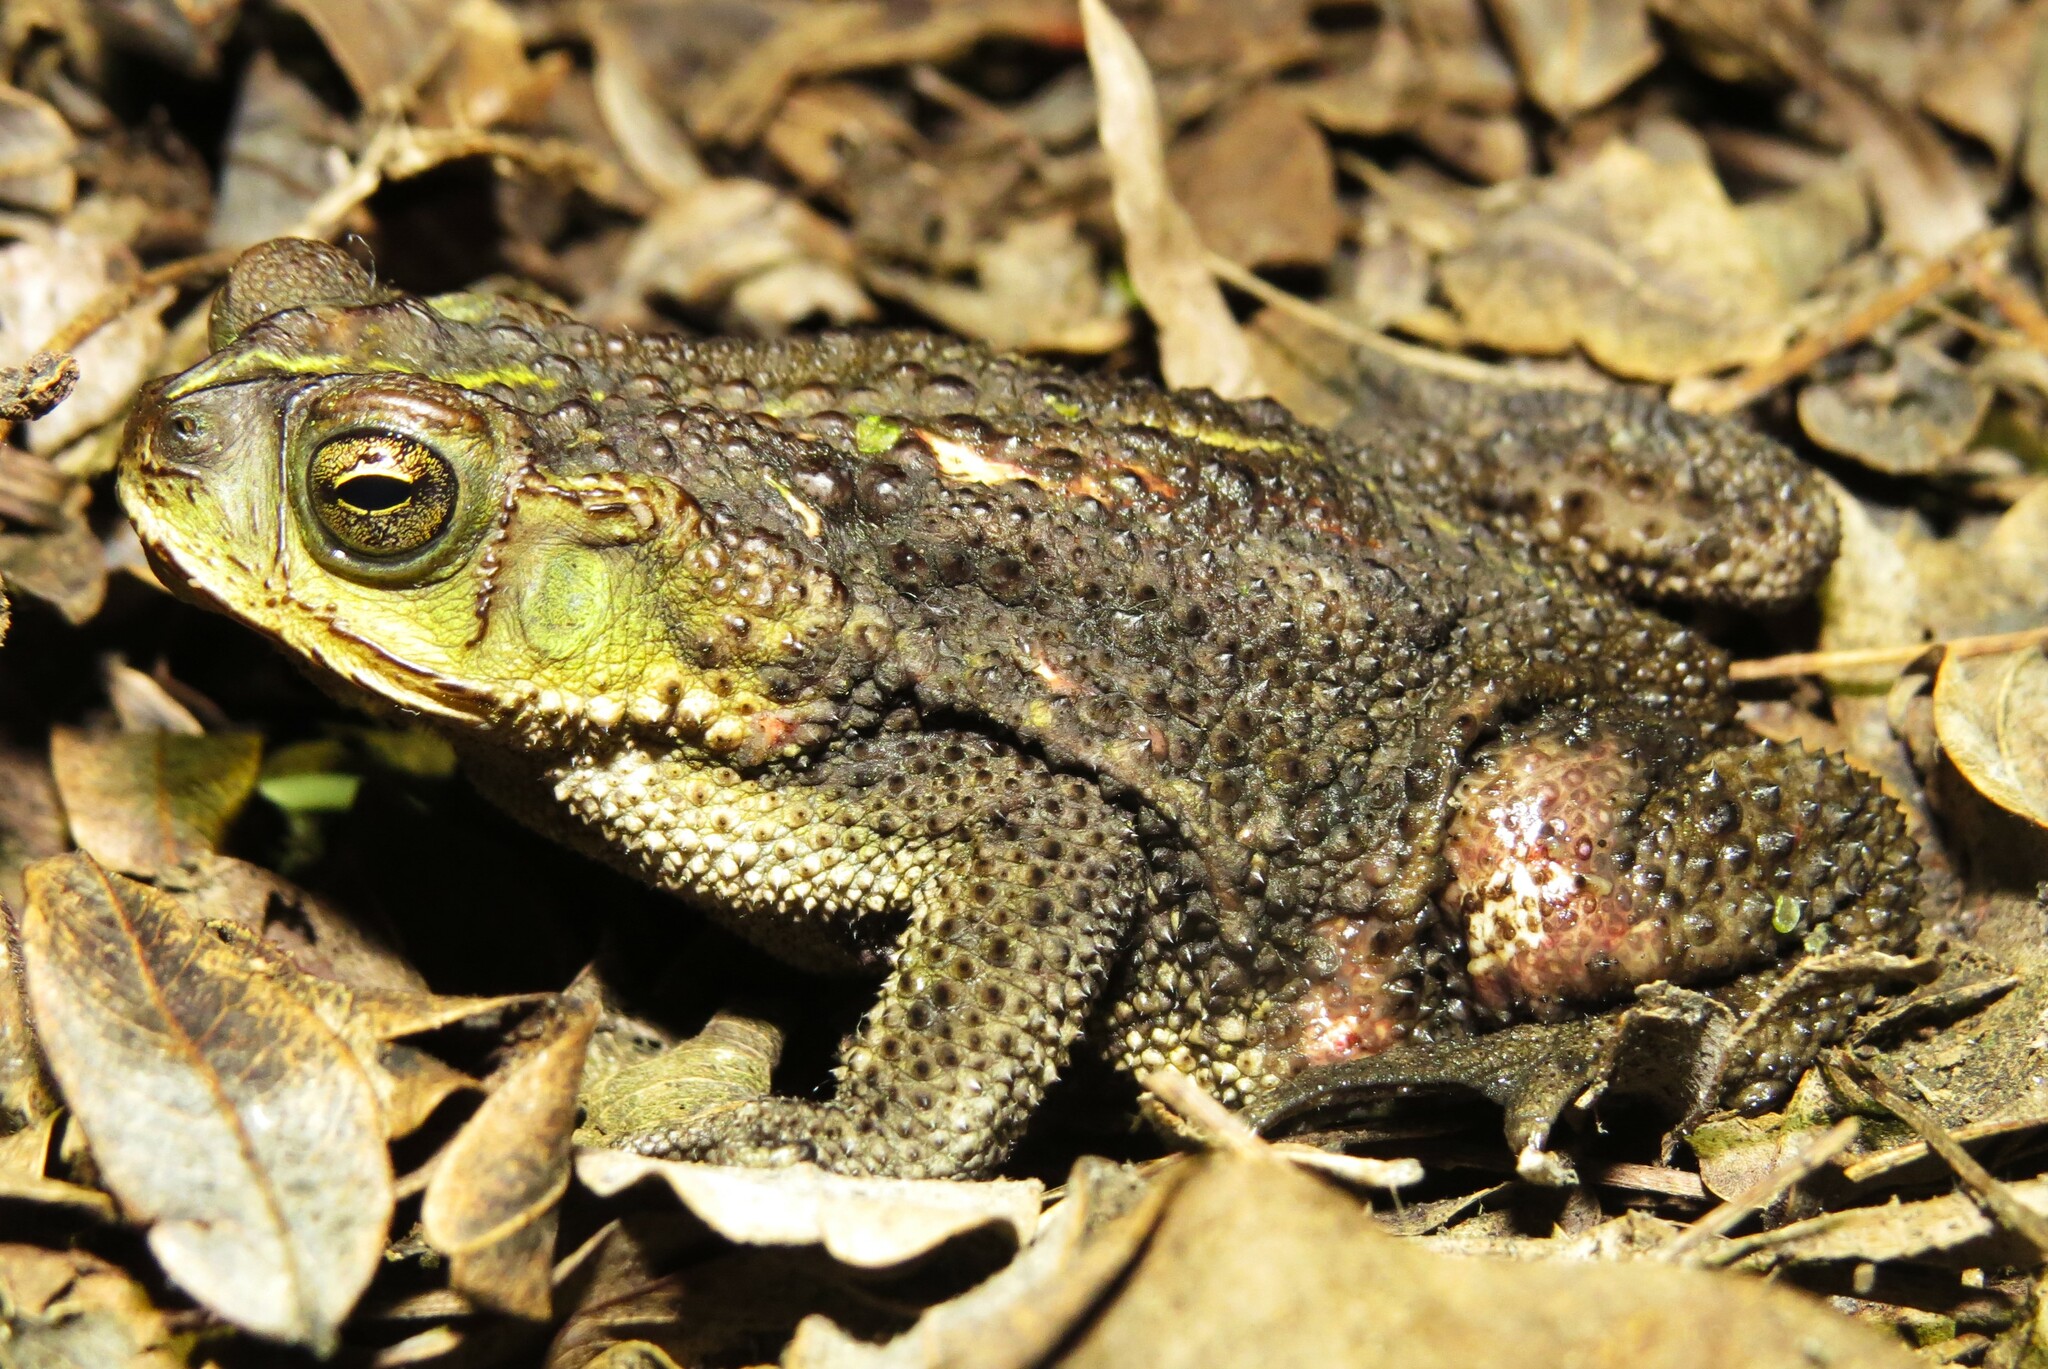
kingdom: Animalia
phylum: Chordata
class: Amphibia
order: Anura
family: Bufonidae
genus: Rhinella
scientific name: Rhinella dorbignyi
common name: D´orbigny’s toad
